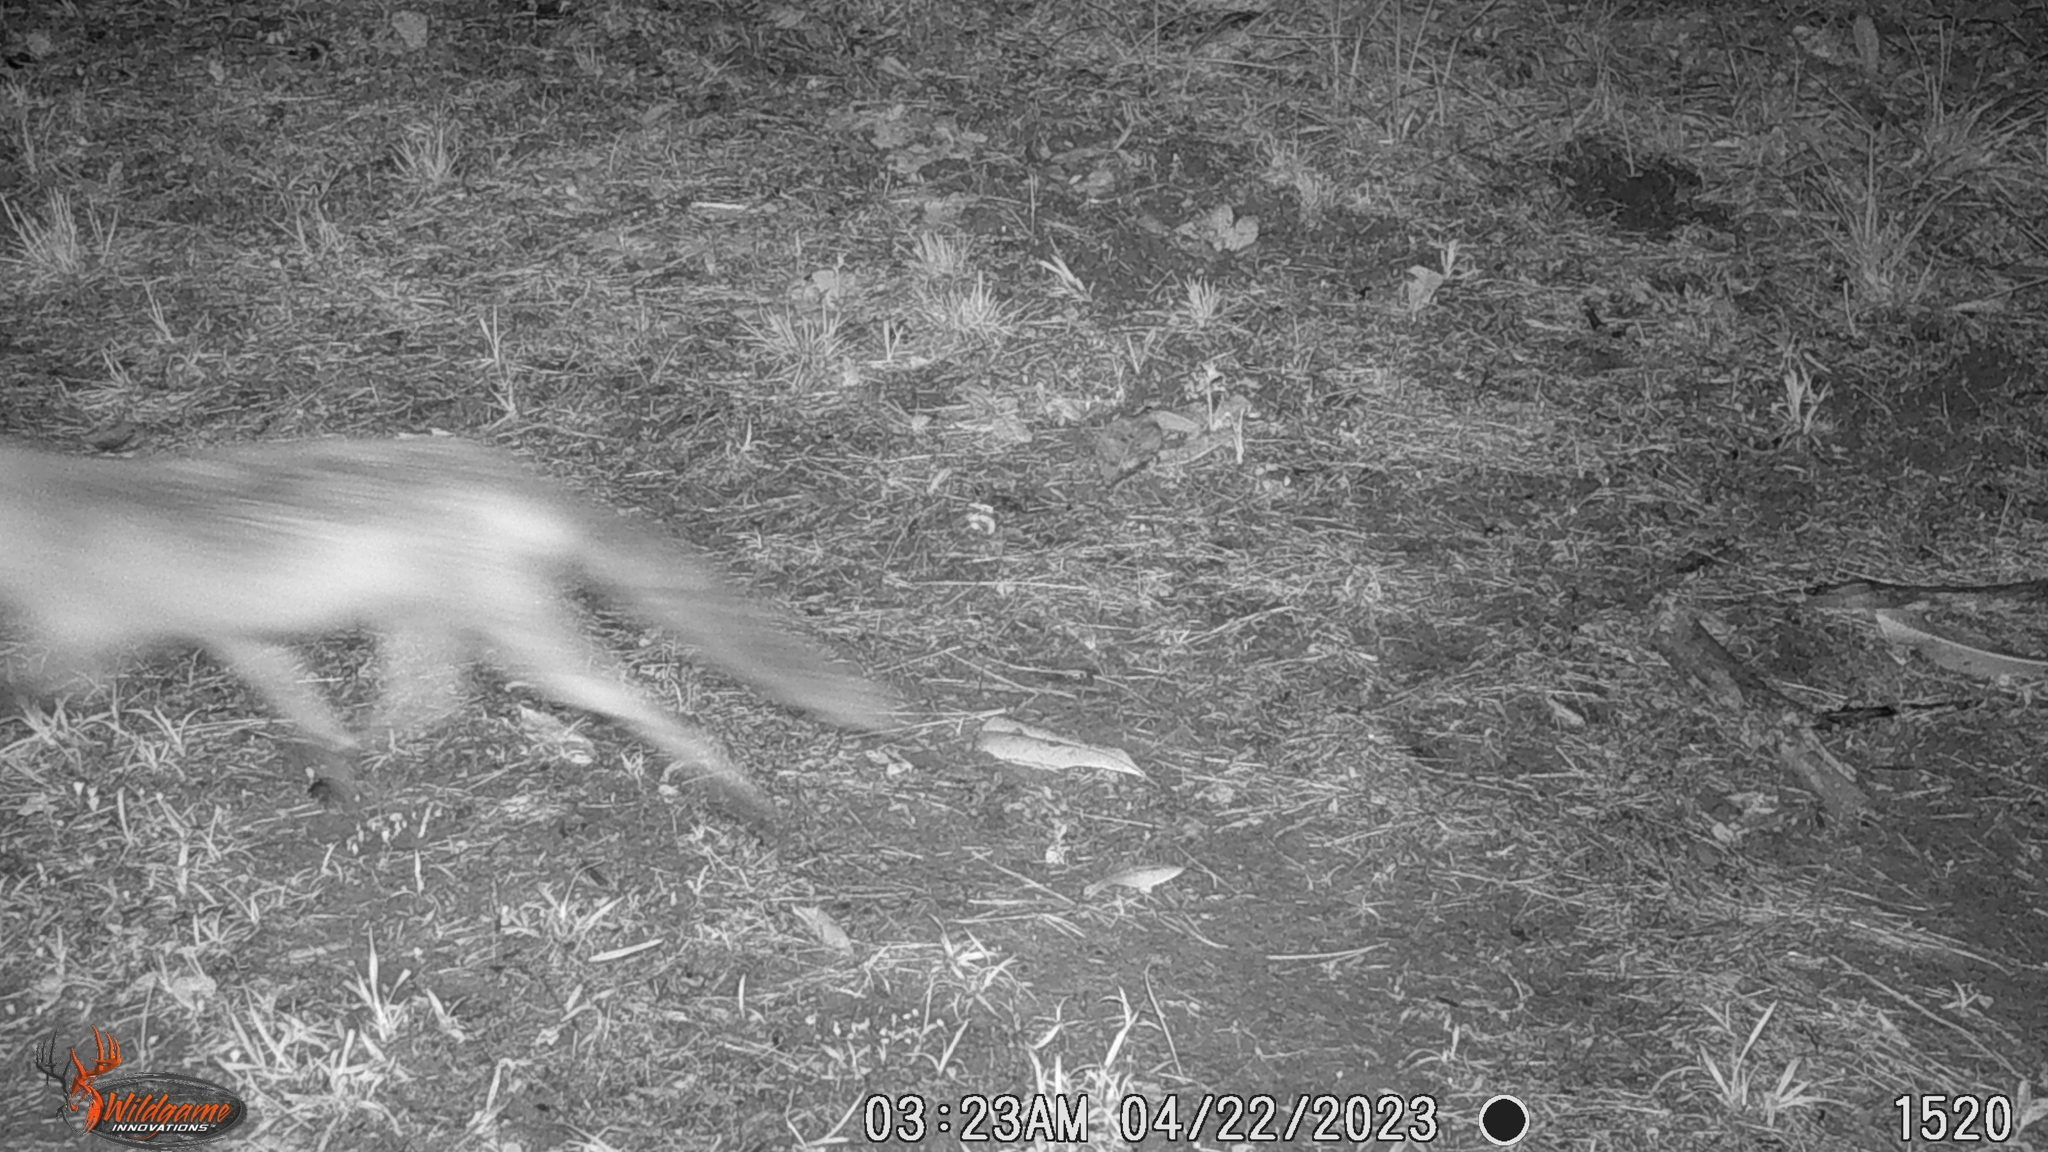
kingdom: Animalia
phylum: Chordata
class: Mammalia
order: Carnivora
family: Canidae
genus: Canis
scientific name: Canis latrans
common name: Coyote
